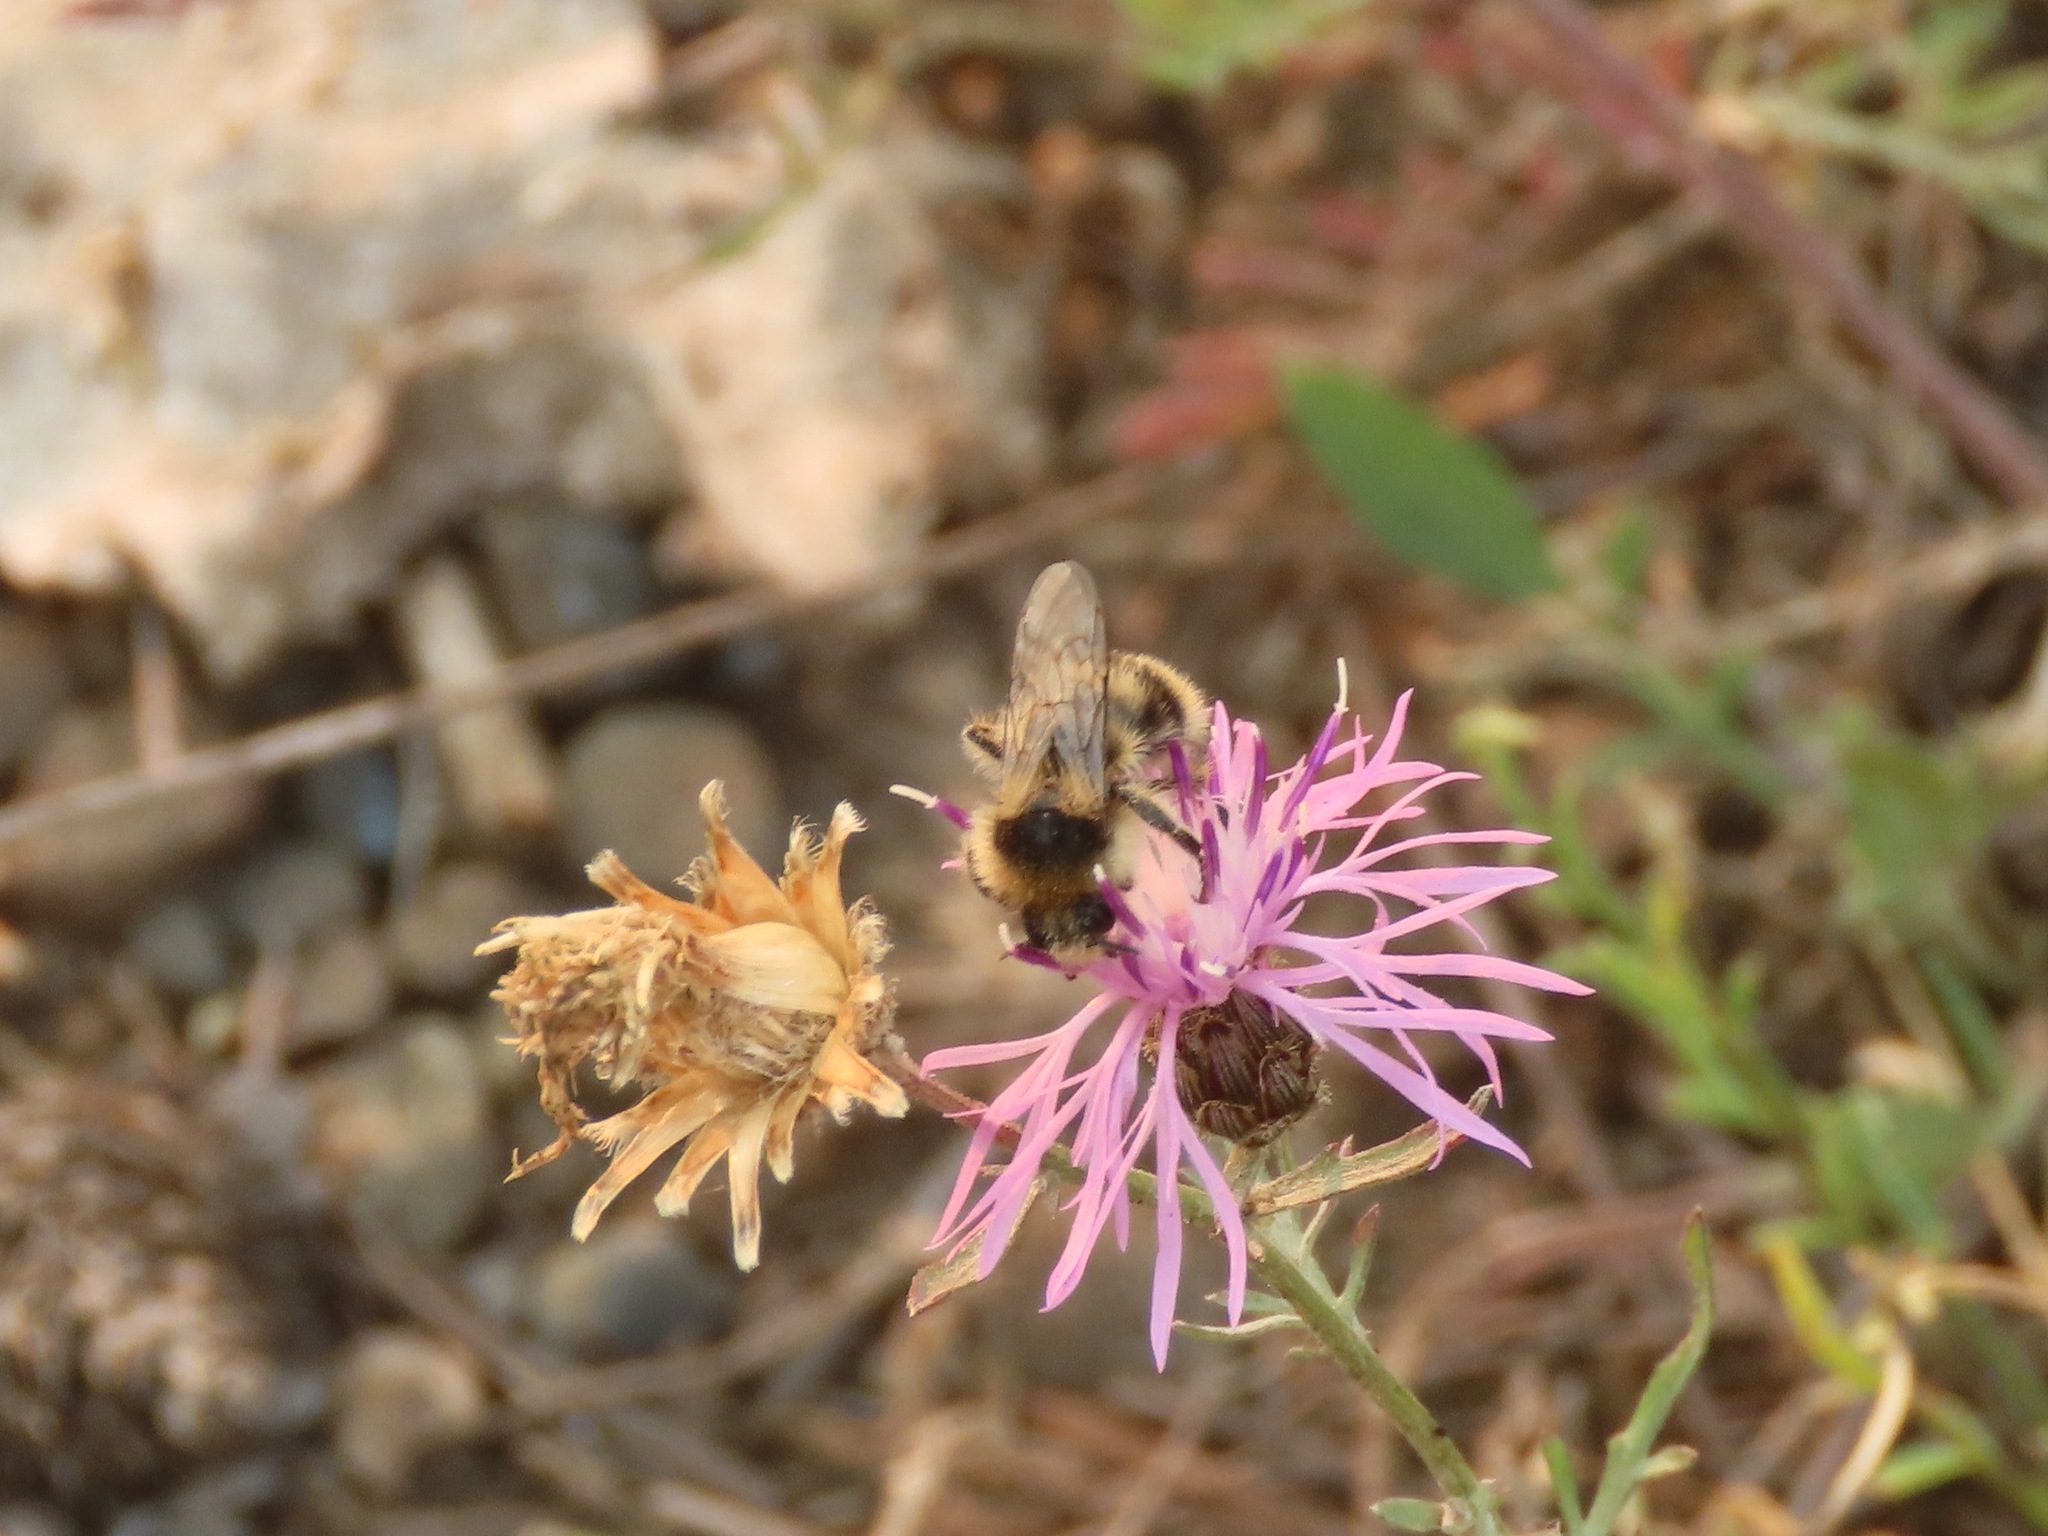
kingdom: Plantae
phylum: Tracheophyta
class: Magnoliopsida
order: Asterales
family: Asteraceae
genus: Centaurea
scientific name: Centaurea stoebe
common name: Spotted knapweed
